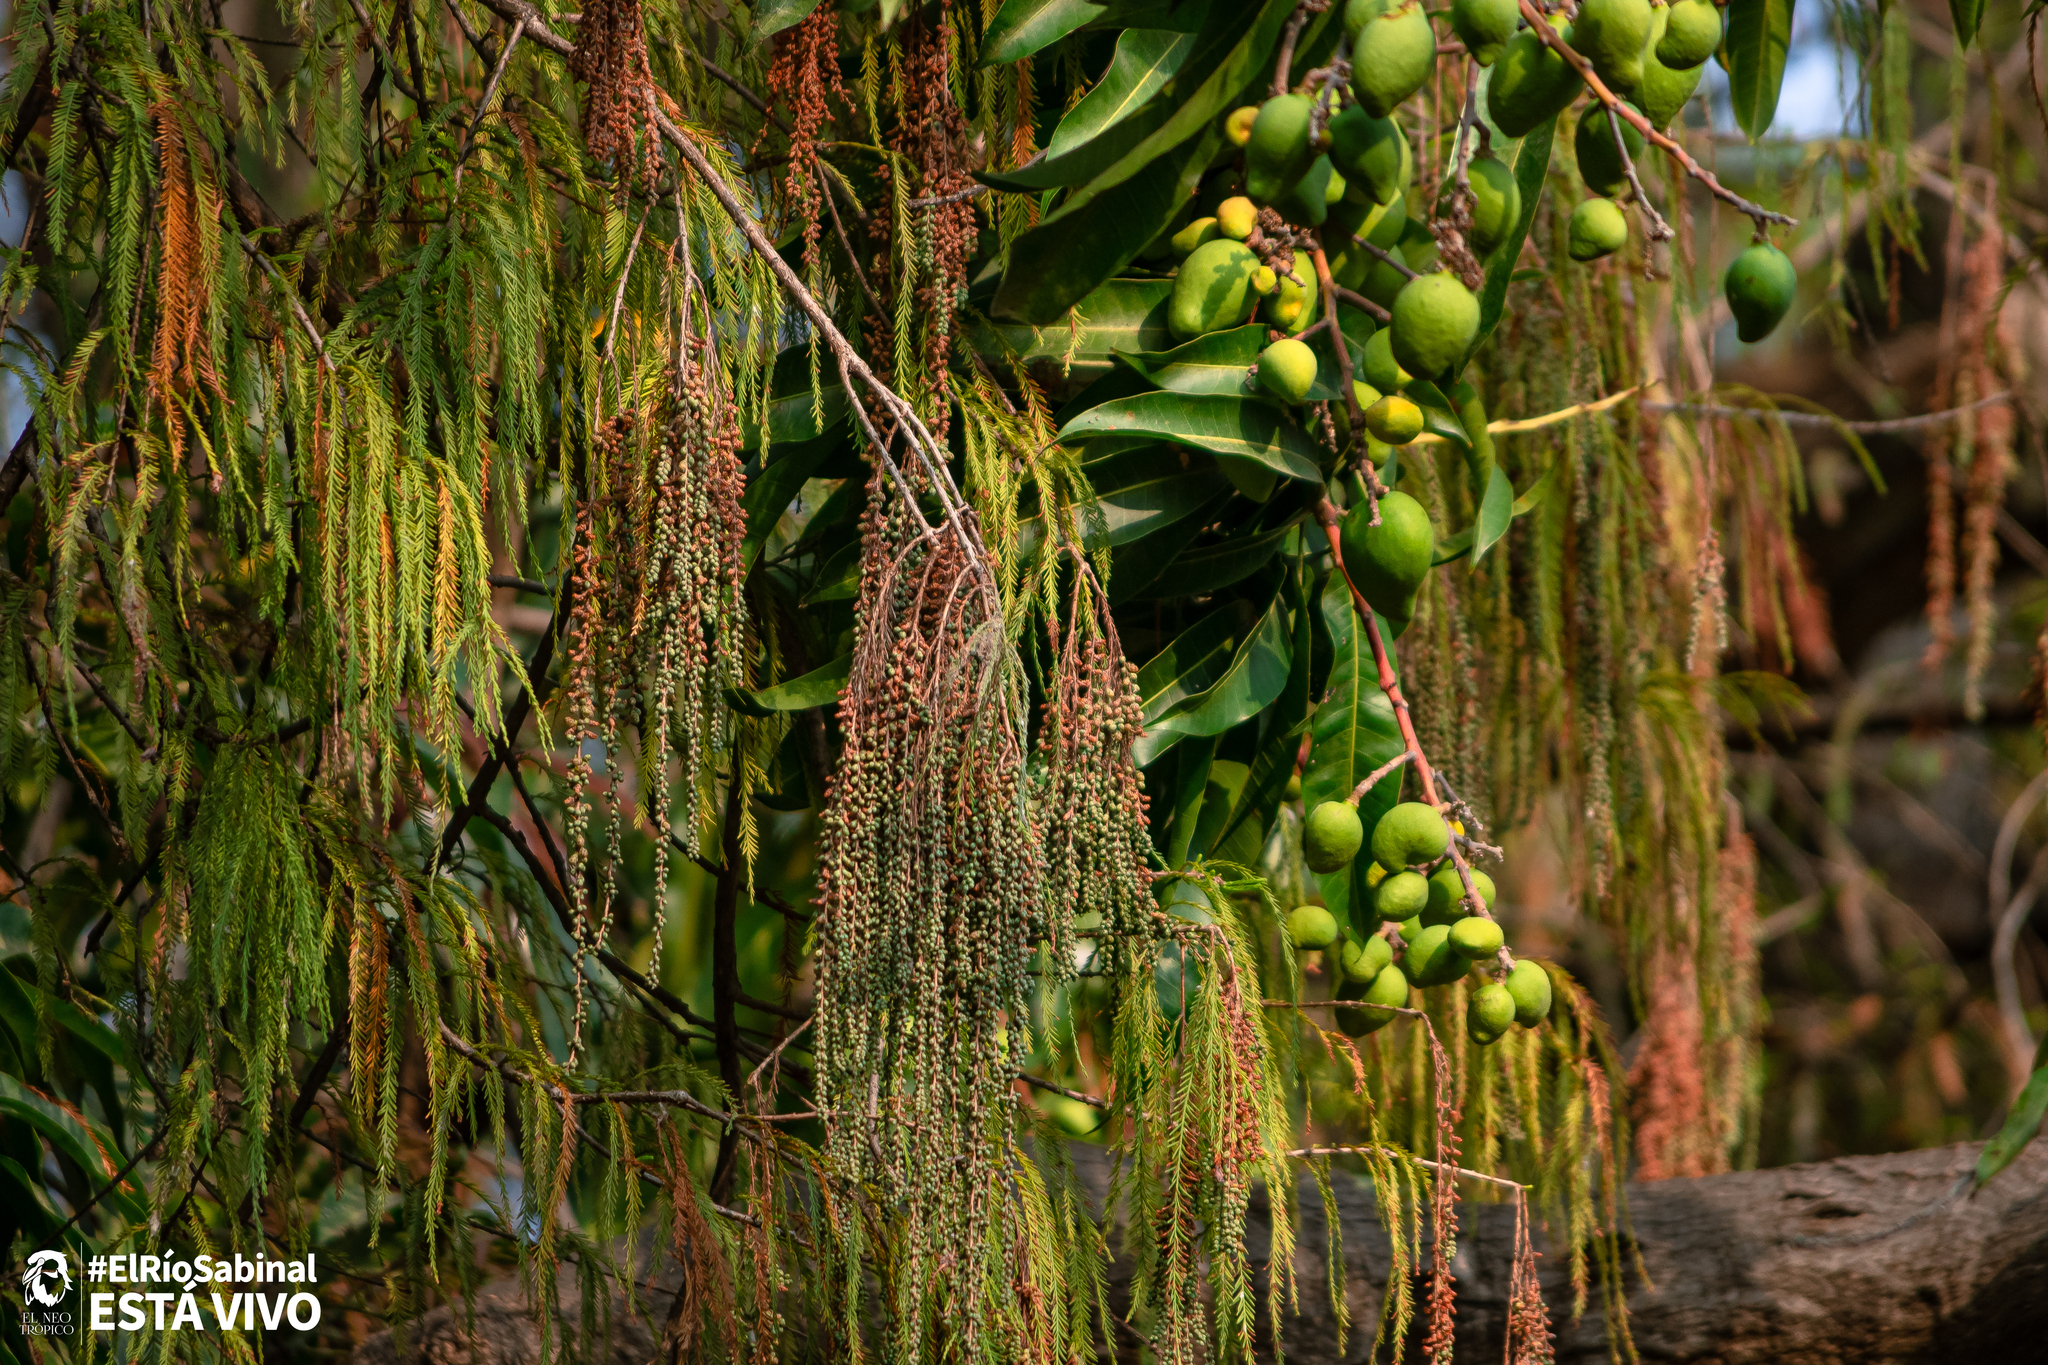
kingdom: Plantae
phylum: Tracheophyta
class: Pinopsida
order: Pinales
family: Cupressaceae
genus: Taxodium
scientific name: Taxodium mucronatum
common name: Montezume bald cypress
